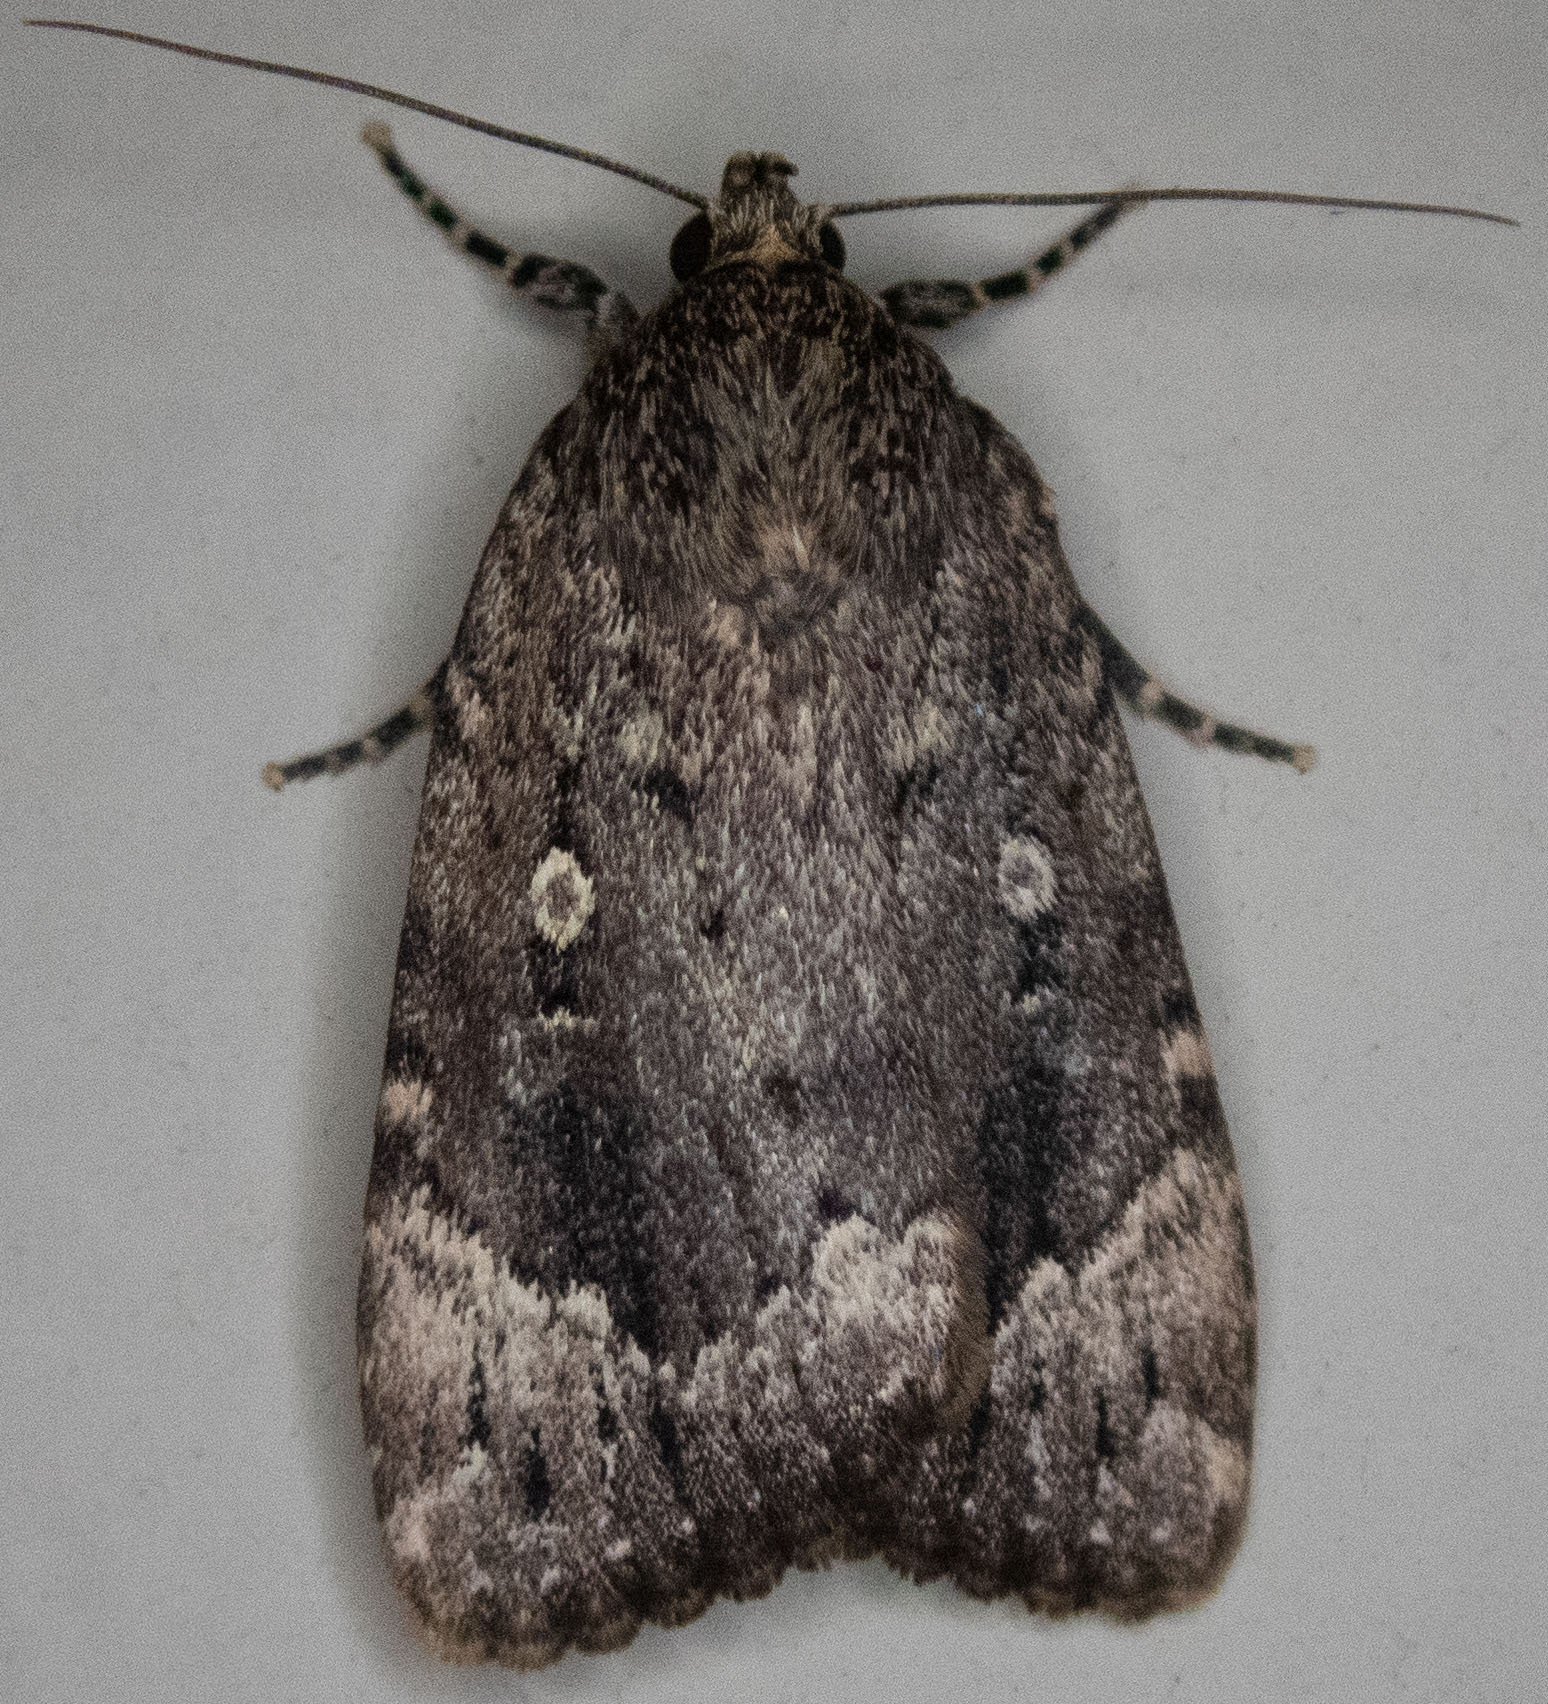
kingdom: Animalia
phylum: Arthropoda
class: Insecta
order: Lepidoptera
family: Noctuidae
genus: Amphipyra
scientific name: Amphipyra pyramidoides
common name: American copper underwing
